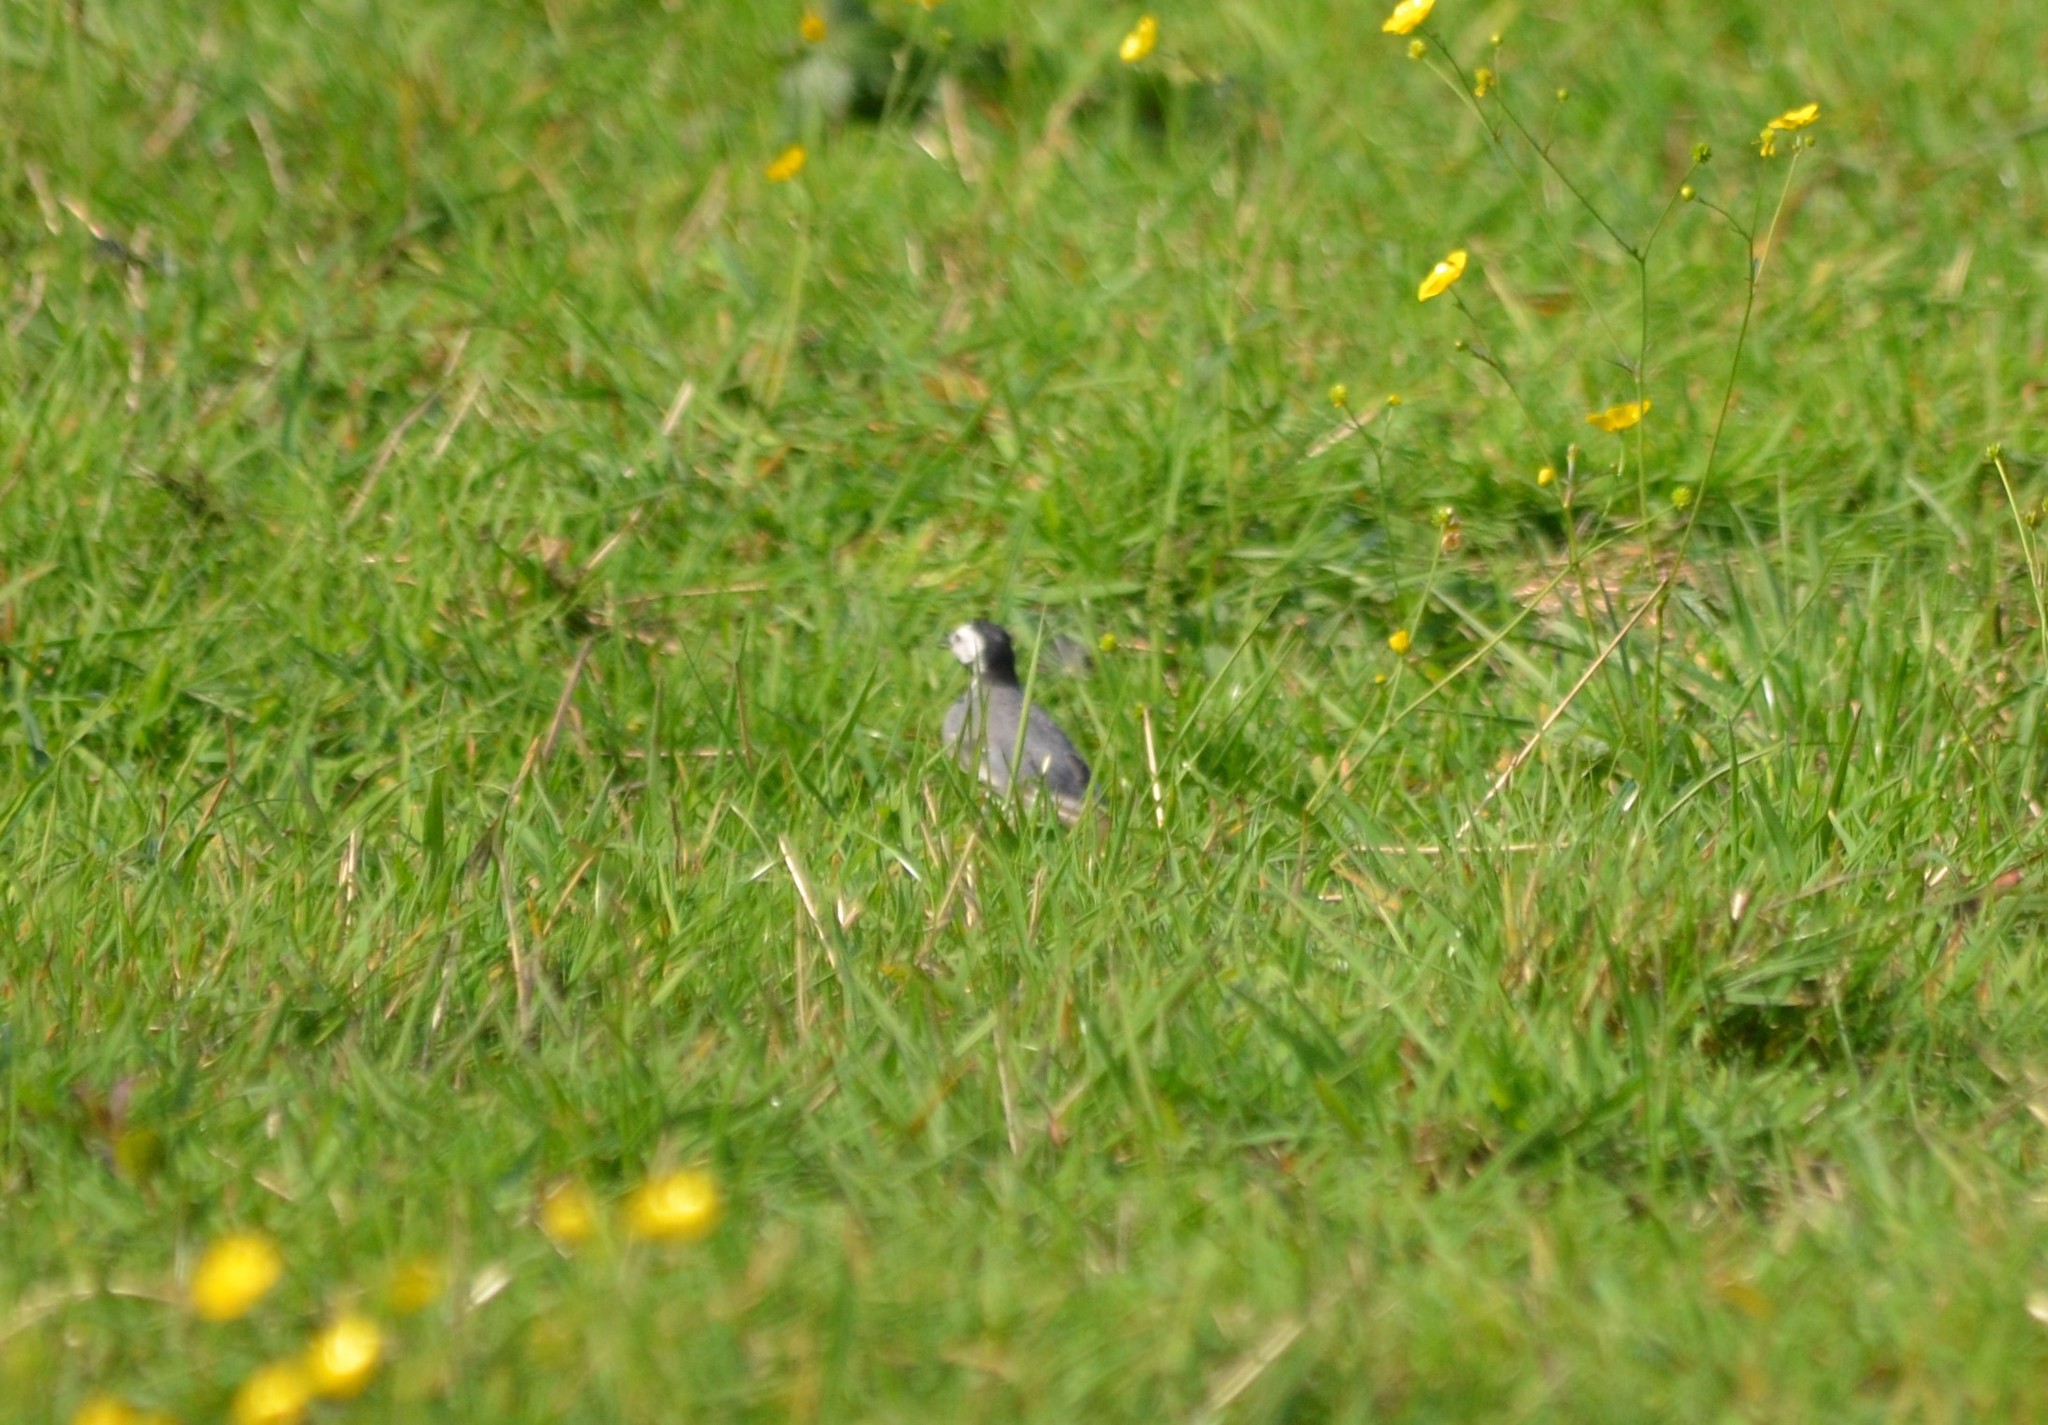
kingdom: Animalia
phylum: Chordata
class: Aves
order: Passeriformes
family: Motacillidae
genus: Motacilla
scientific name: Motacilla alba
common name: White wagtail
